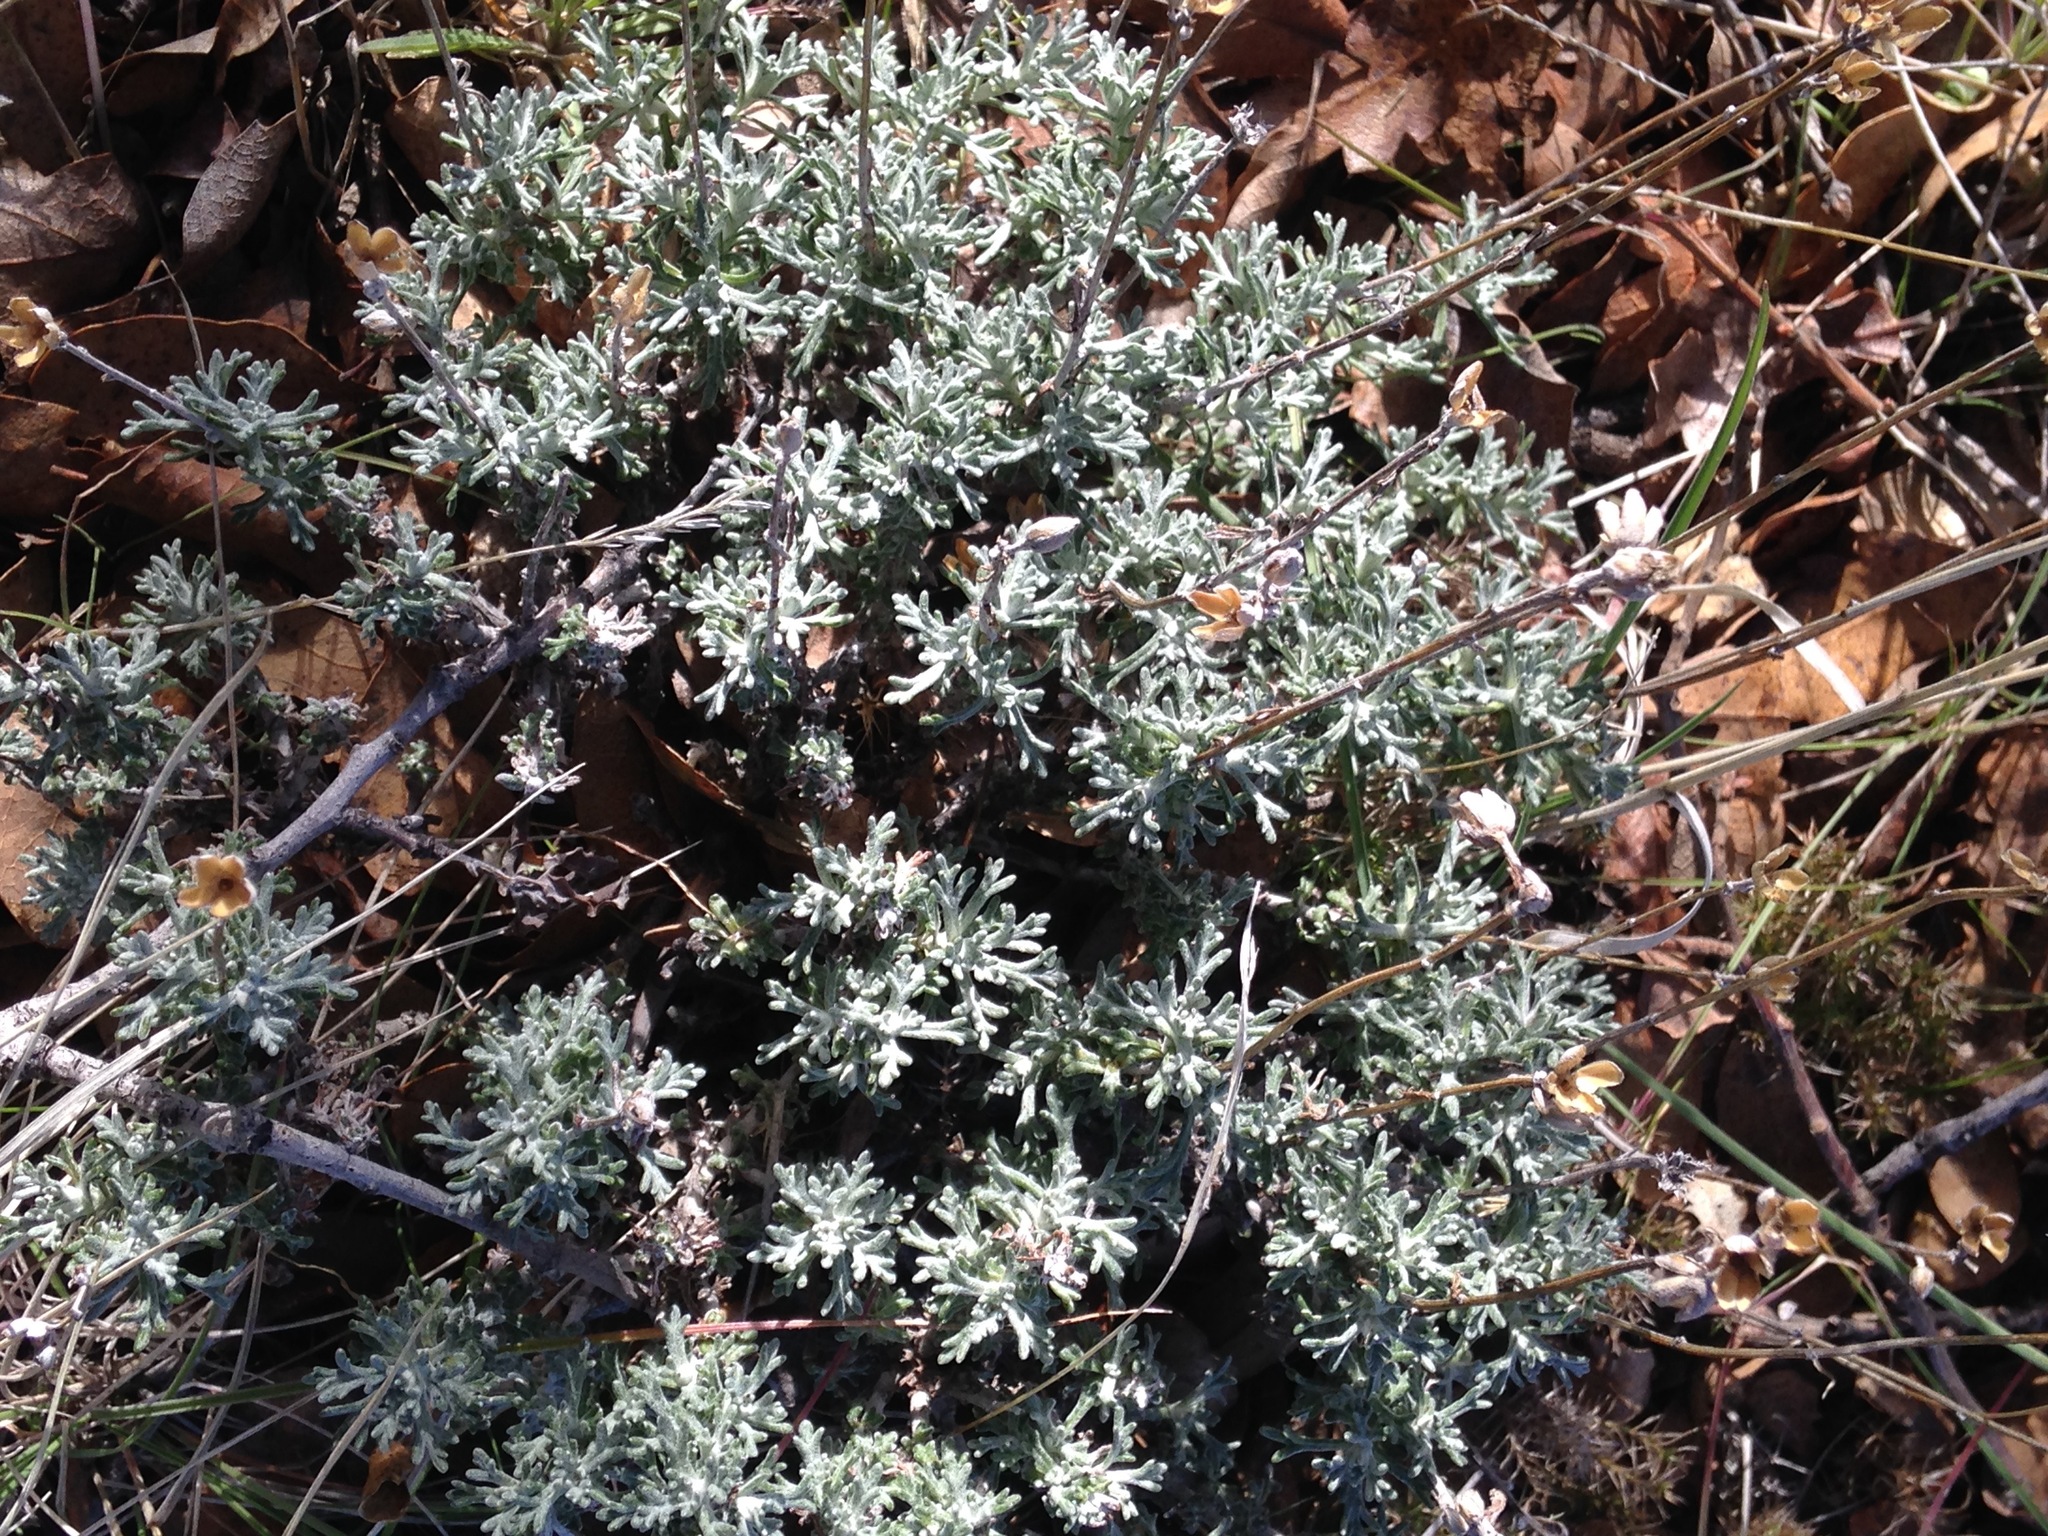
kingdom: Plantae
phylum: Tracheophyta
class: Magnoliopsida
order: Asterales
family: Asteraceae
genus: Eriophyllum
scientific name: Eriophyllum confertiflorum
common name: Golden-yarrow
